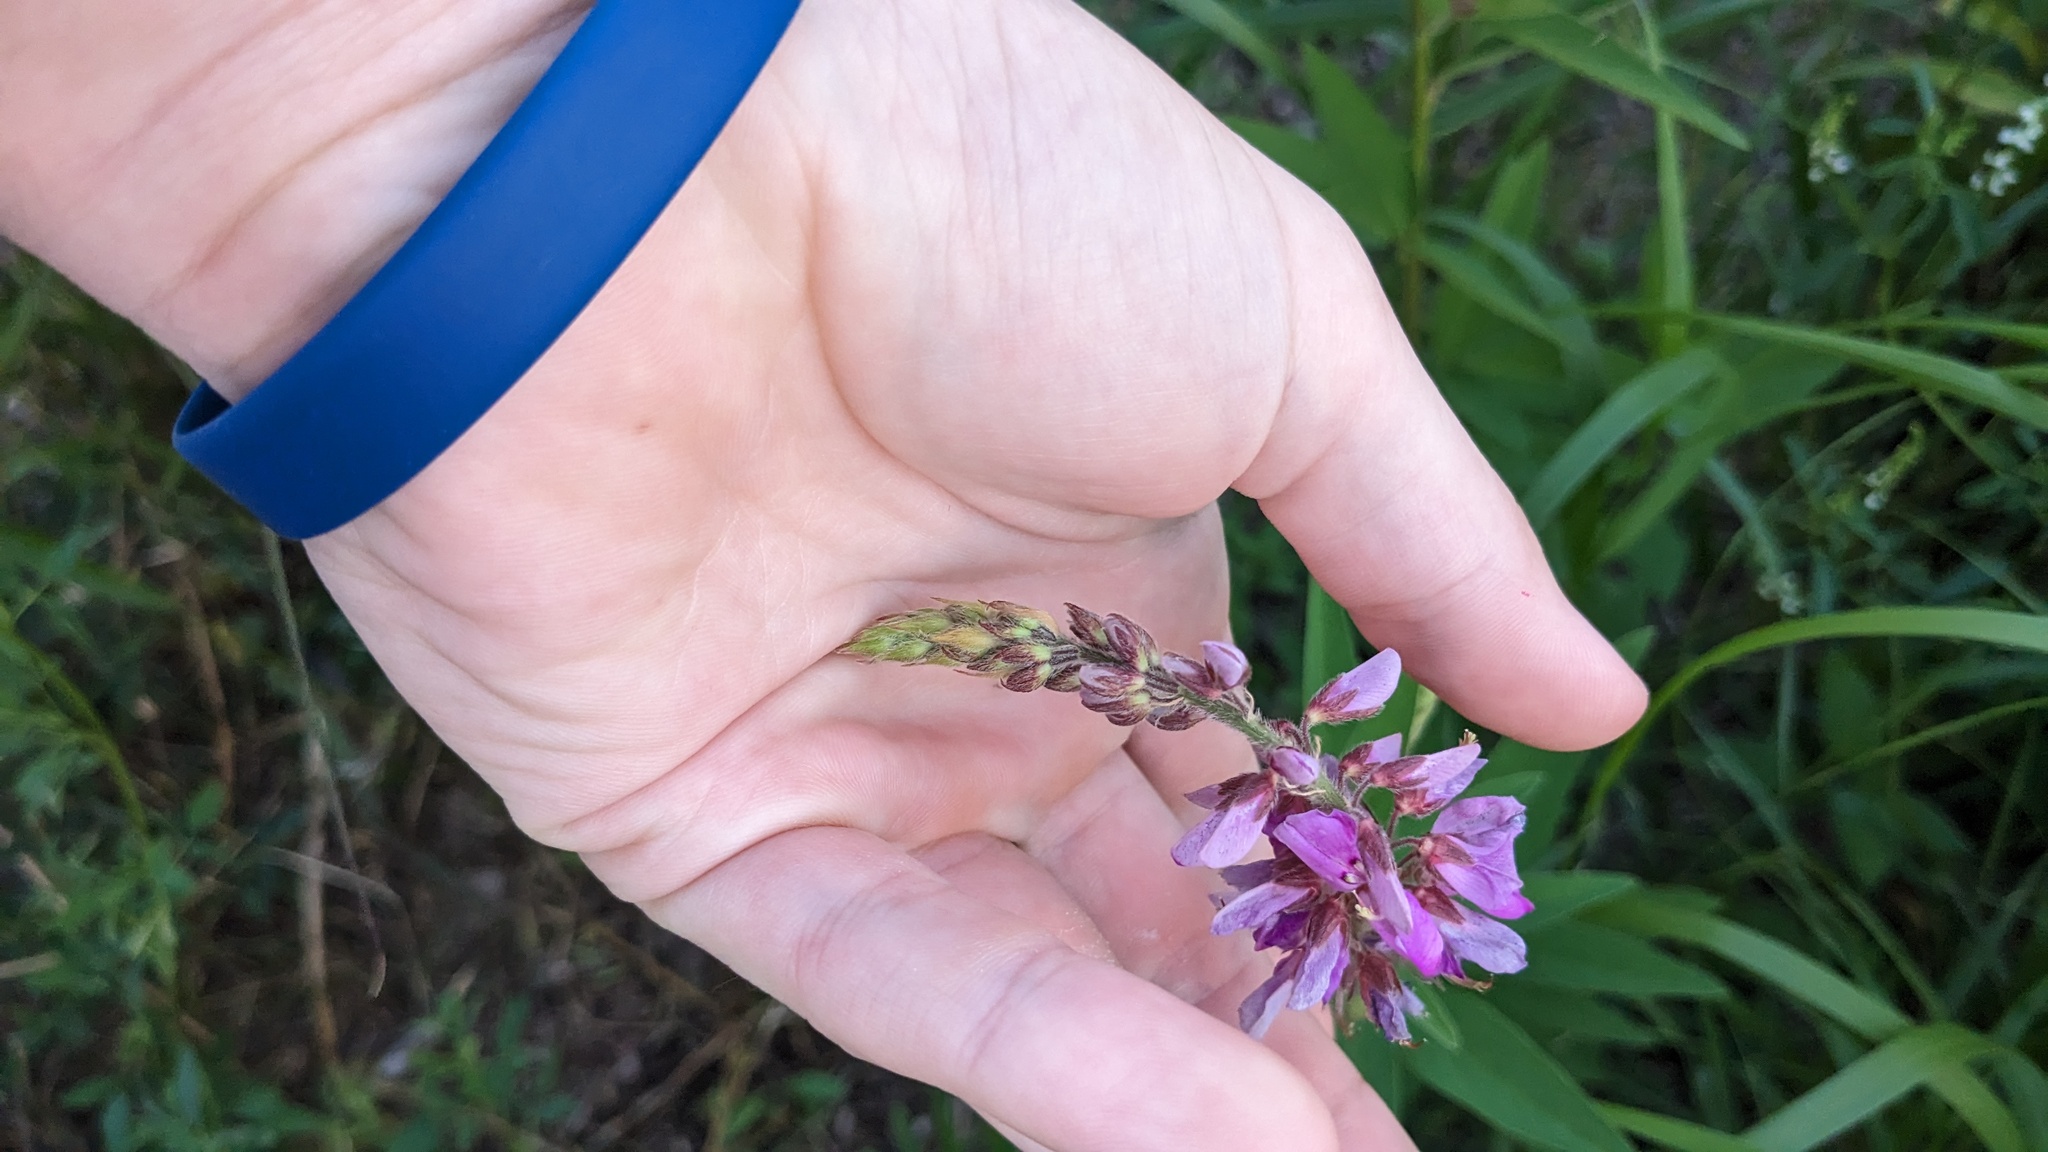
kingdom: Plantae
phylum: Tracheophyta
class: Magnoliopsida
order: Fabales
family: Fabaceae
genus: Desmodium
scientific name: Desmodium canadense
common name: Canada tick-trefoil
